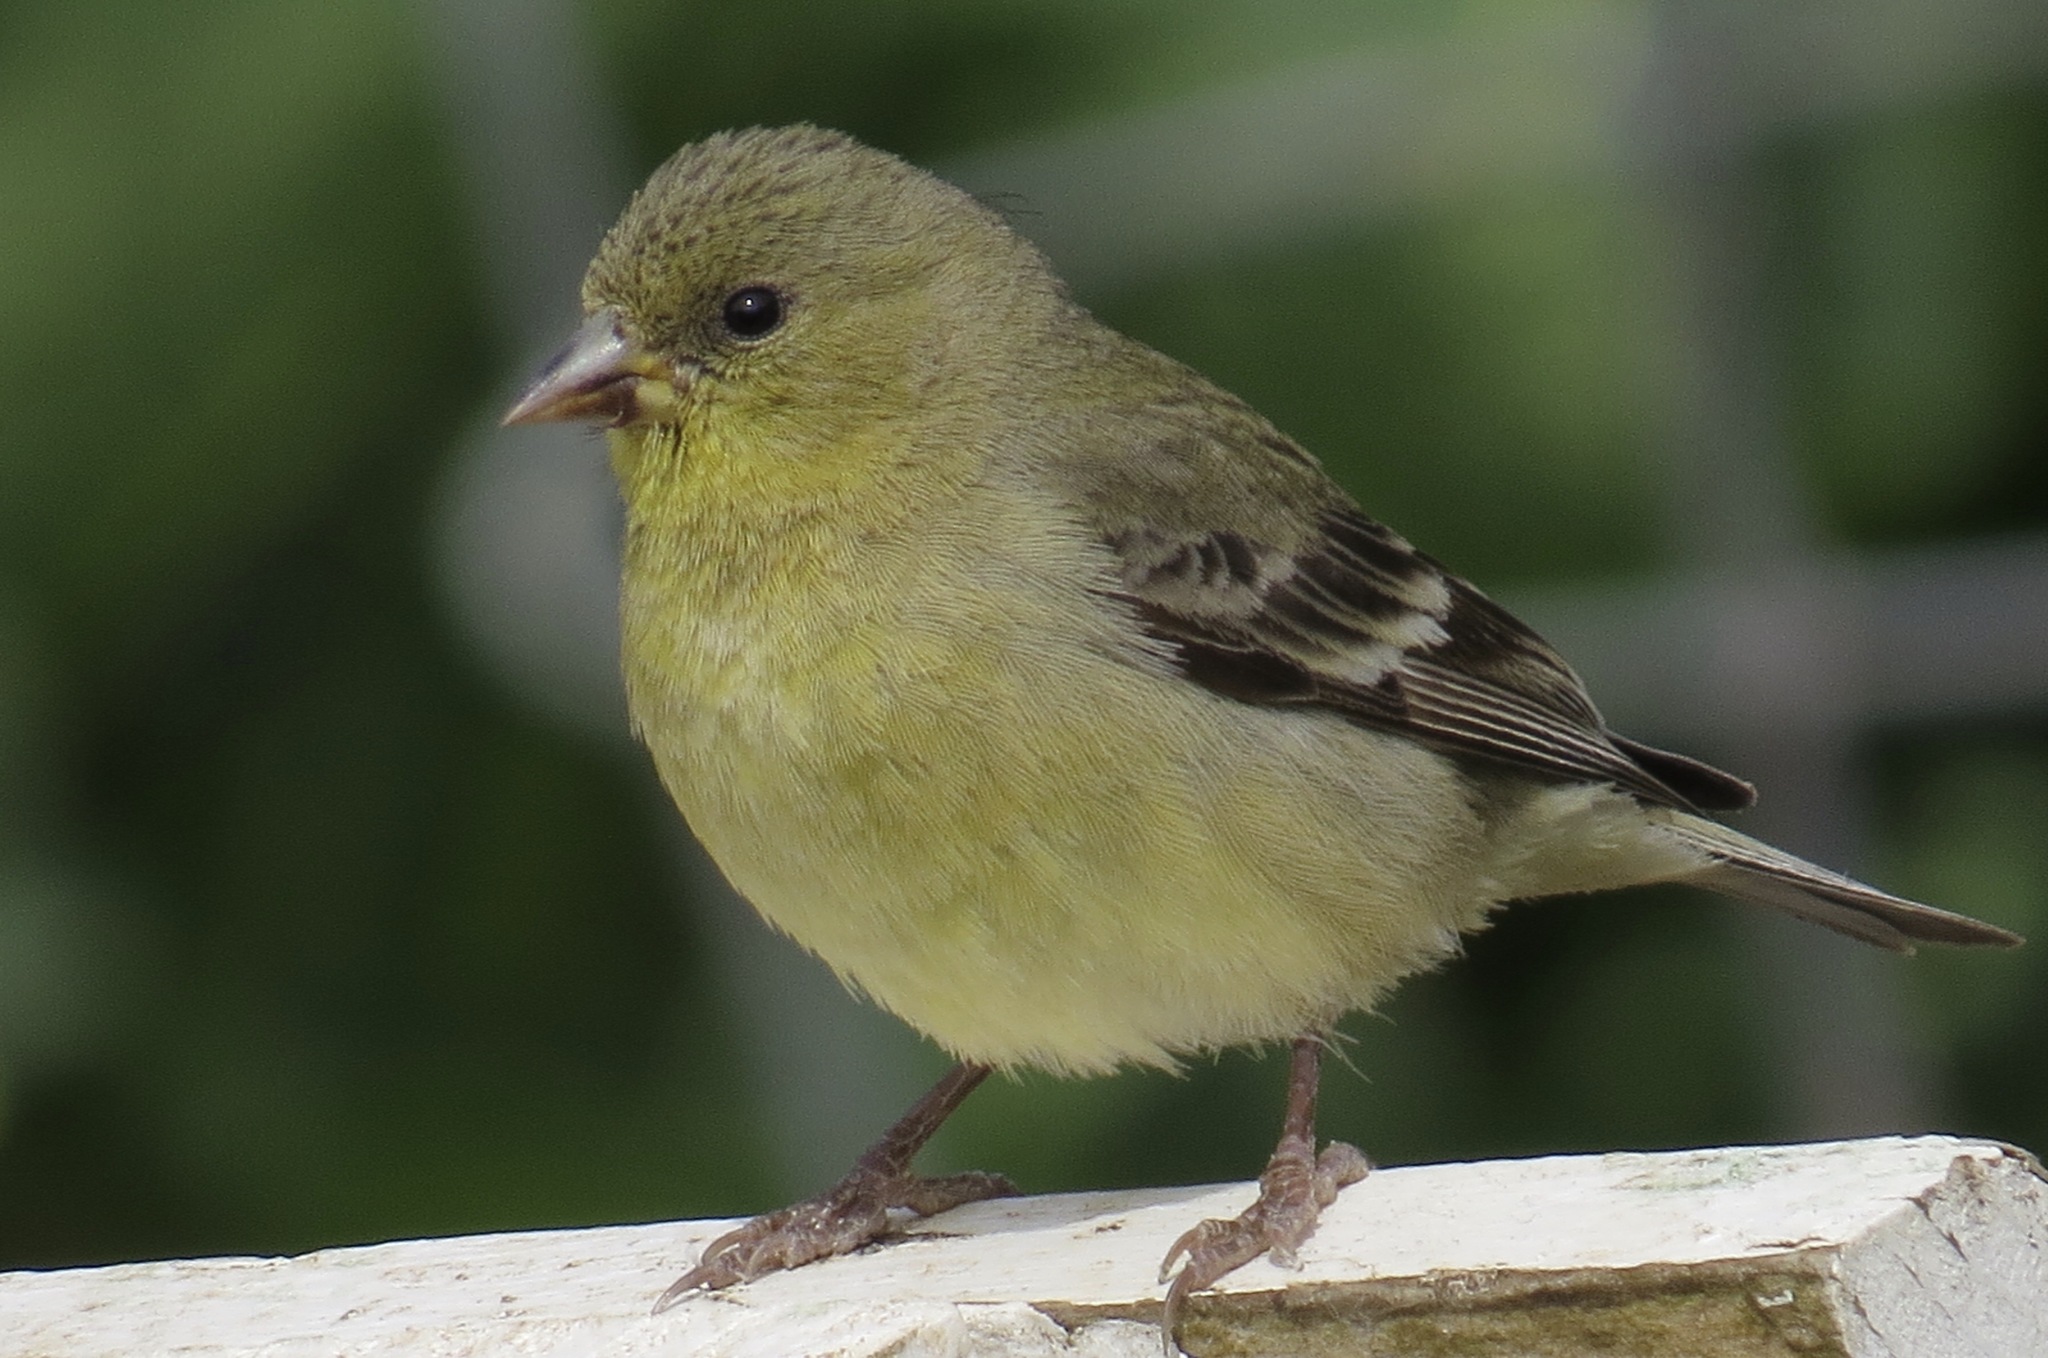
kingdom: Animalia
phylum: Chordata
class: Aves
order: Passeriformes
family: Fringillidae
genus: Spinus
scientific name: Spinus psaltria
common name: Lesser goldfinch
